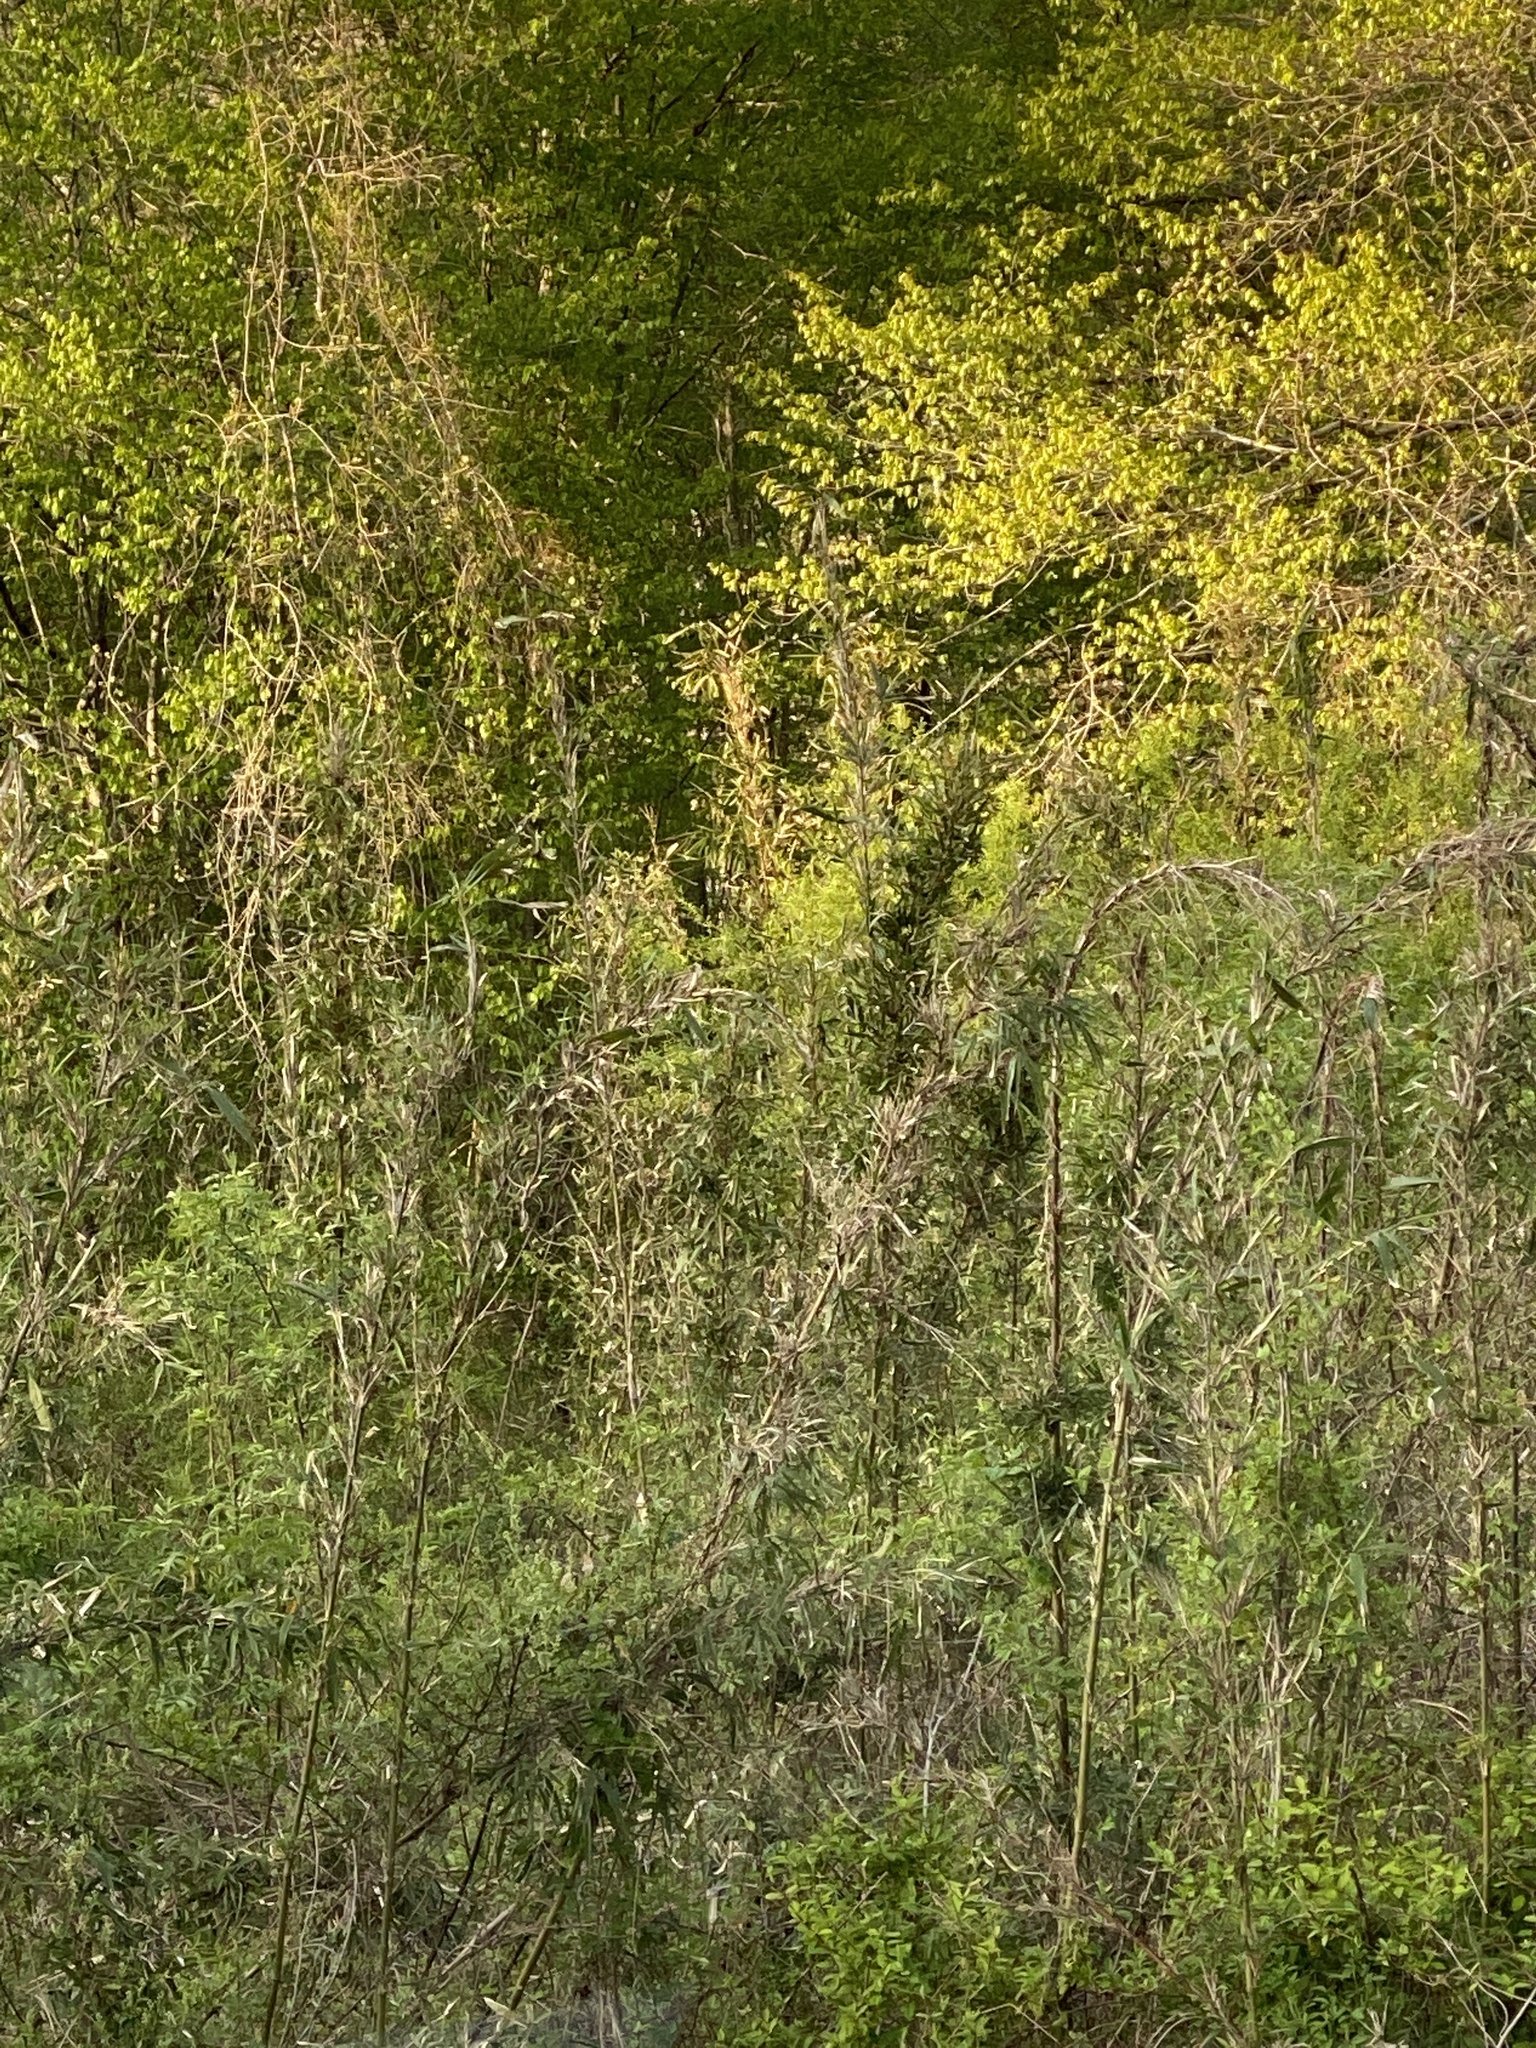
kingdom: Plantae
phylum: Tracheophyta
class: Liliopsida
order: Poales
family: Poaceae
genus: Arundinaria
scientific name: Arundinaria gigantea
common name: Giant cane
